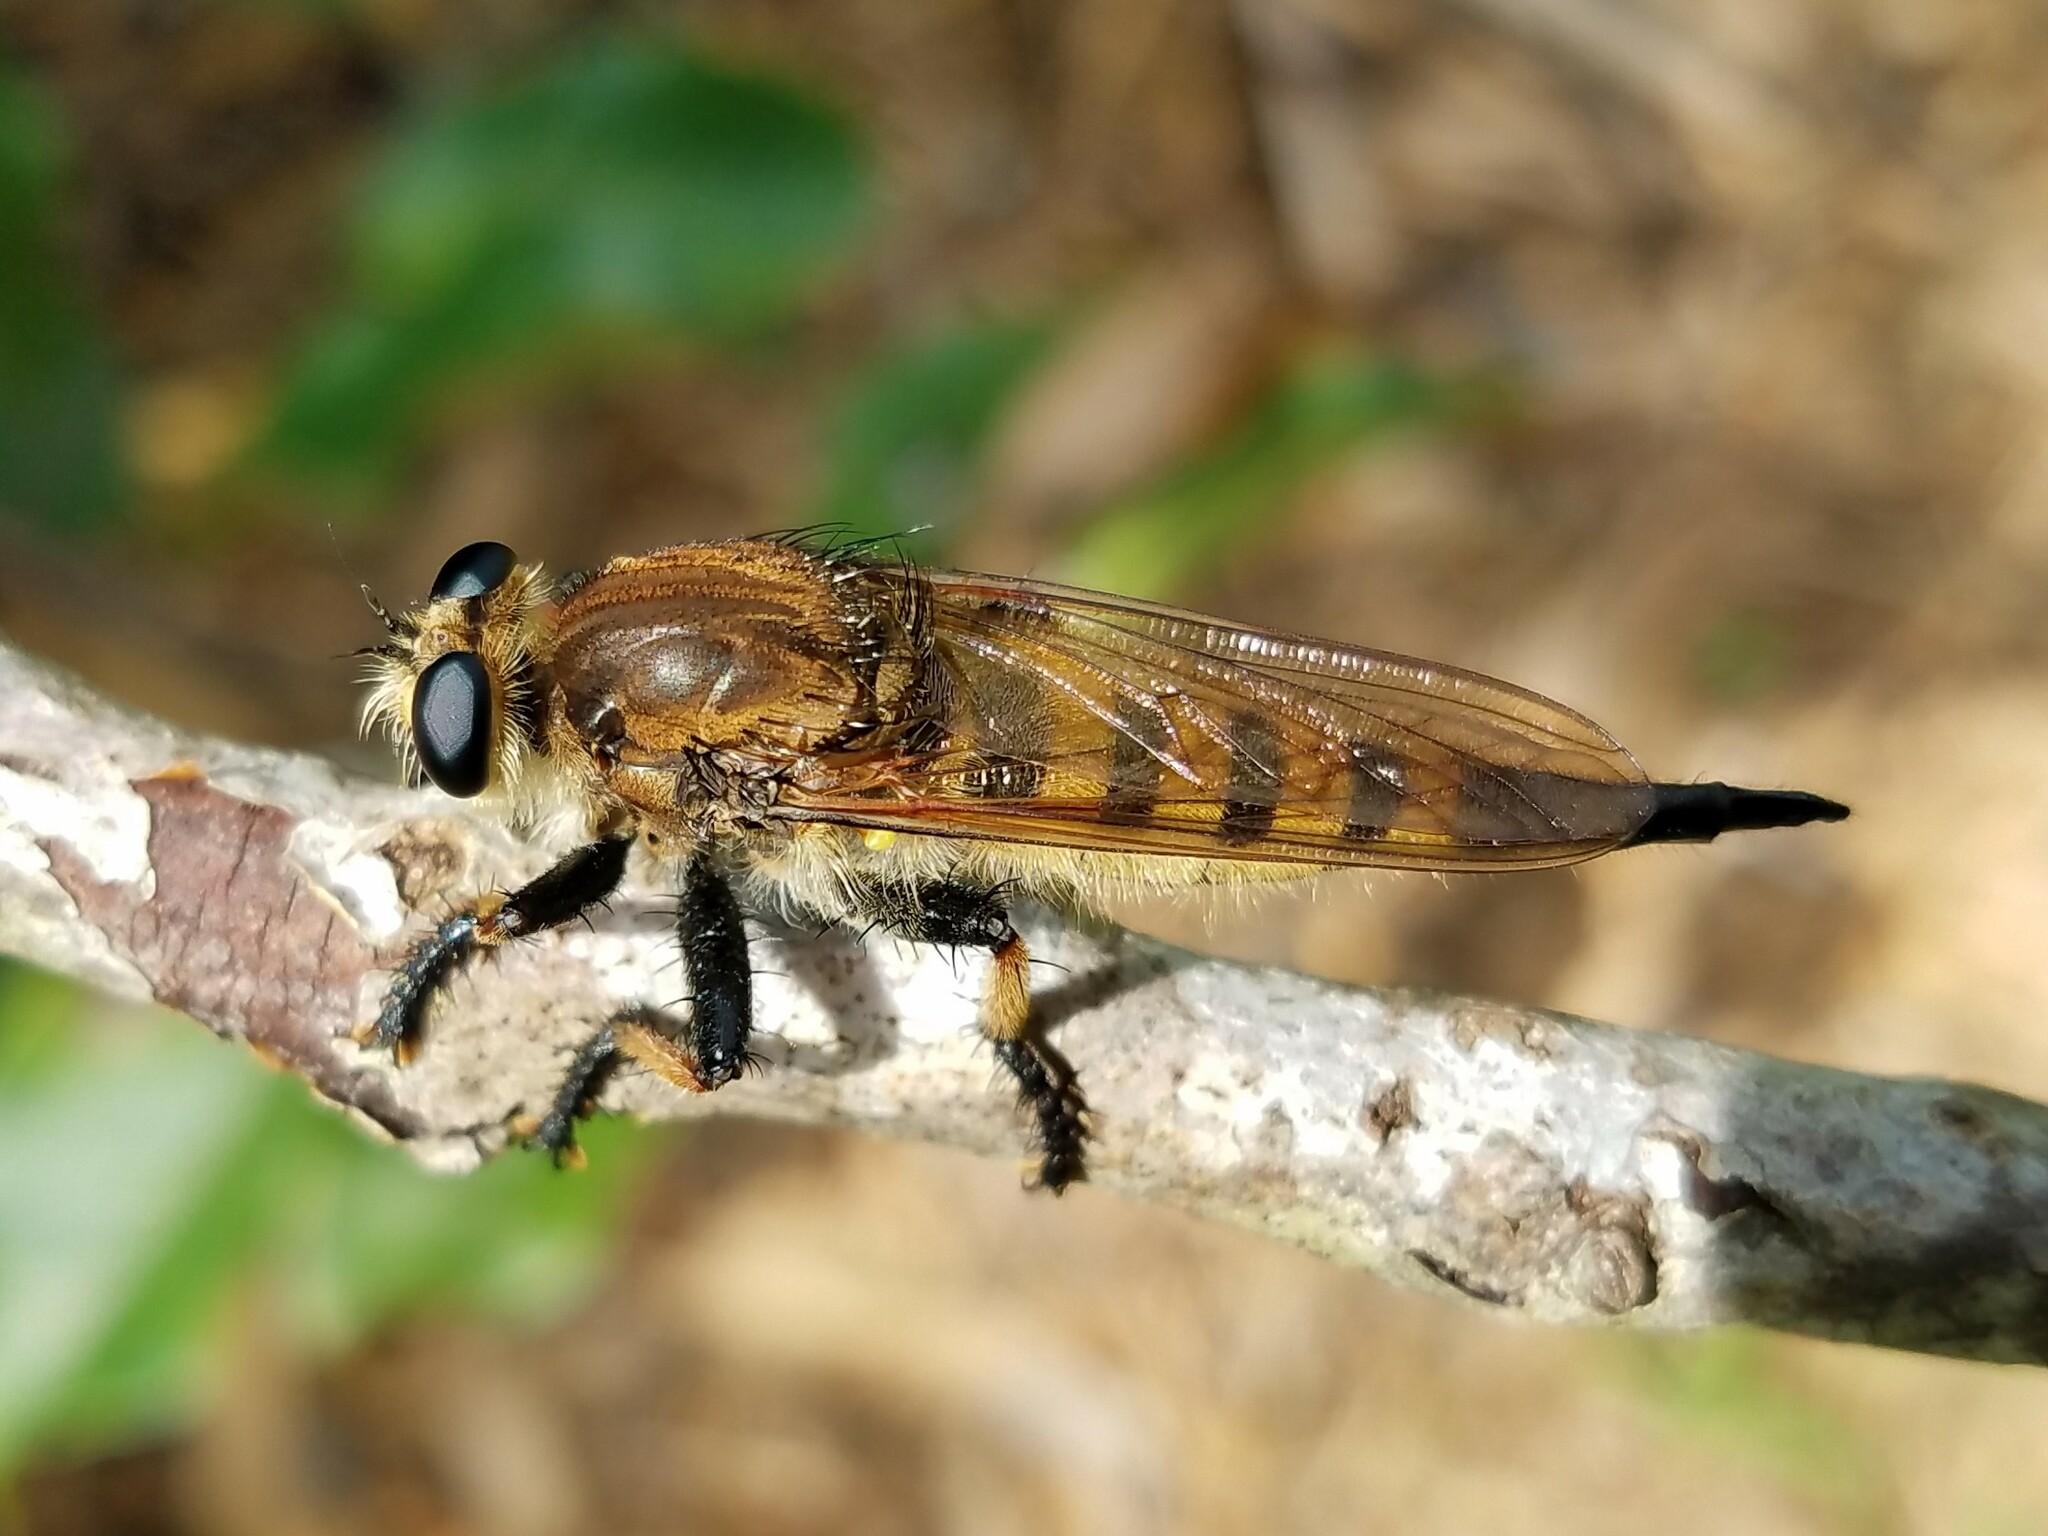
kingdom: Animalia
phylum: Arthropoda
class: Insecta
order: Diptera
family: Asilidae
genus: Promachus
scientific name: Promachus rufipes
